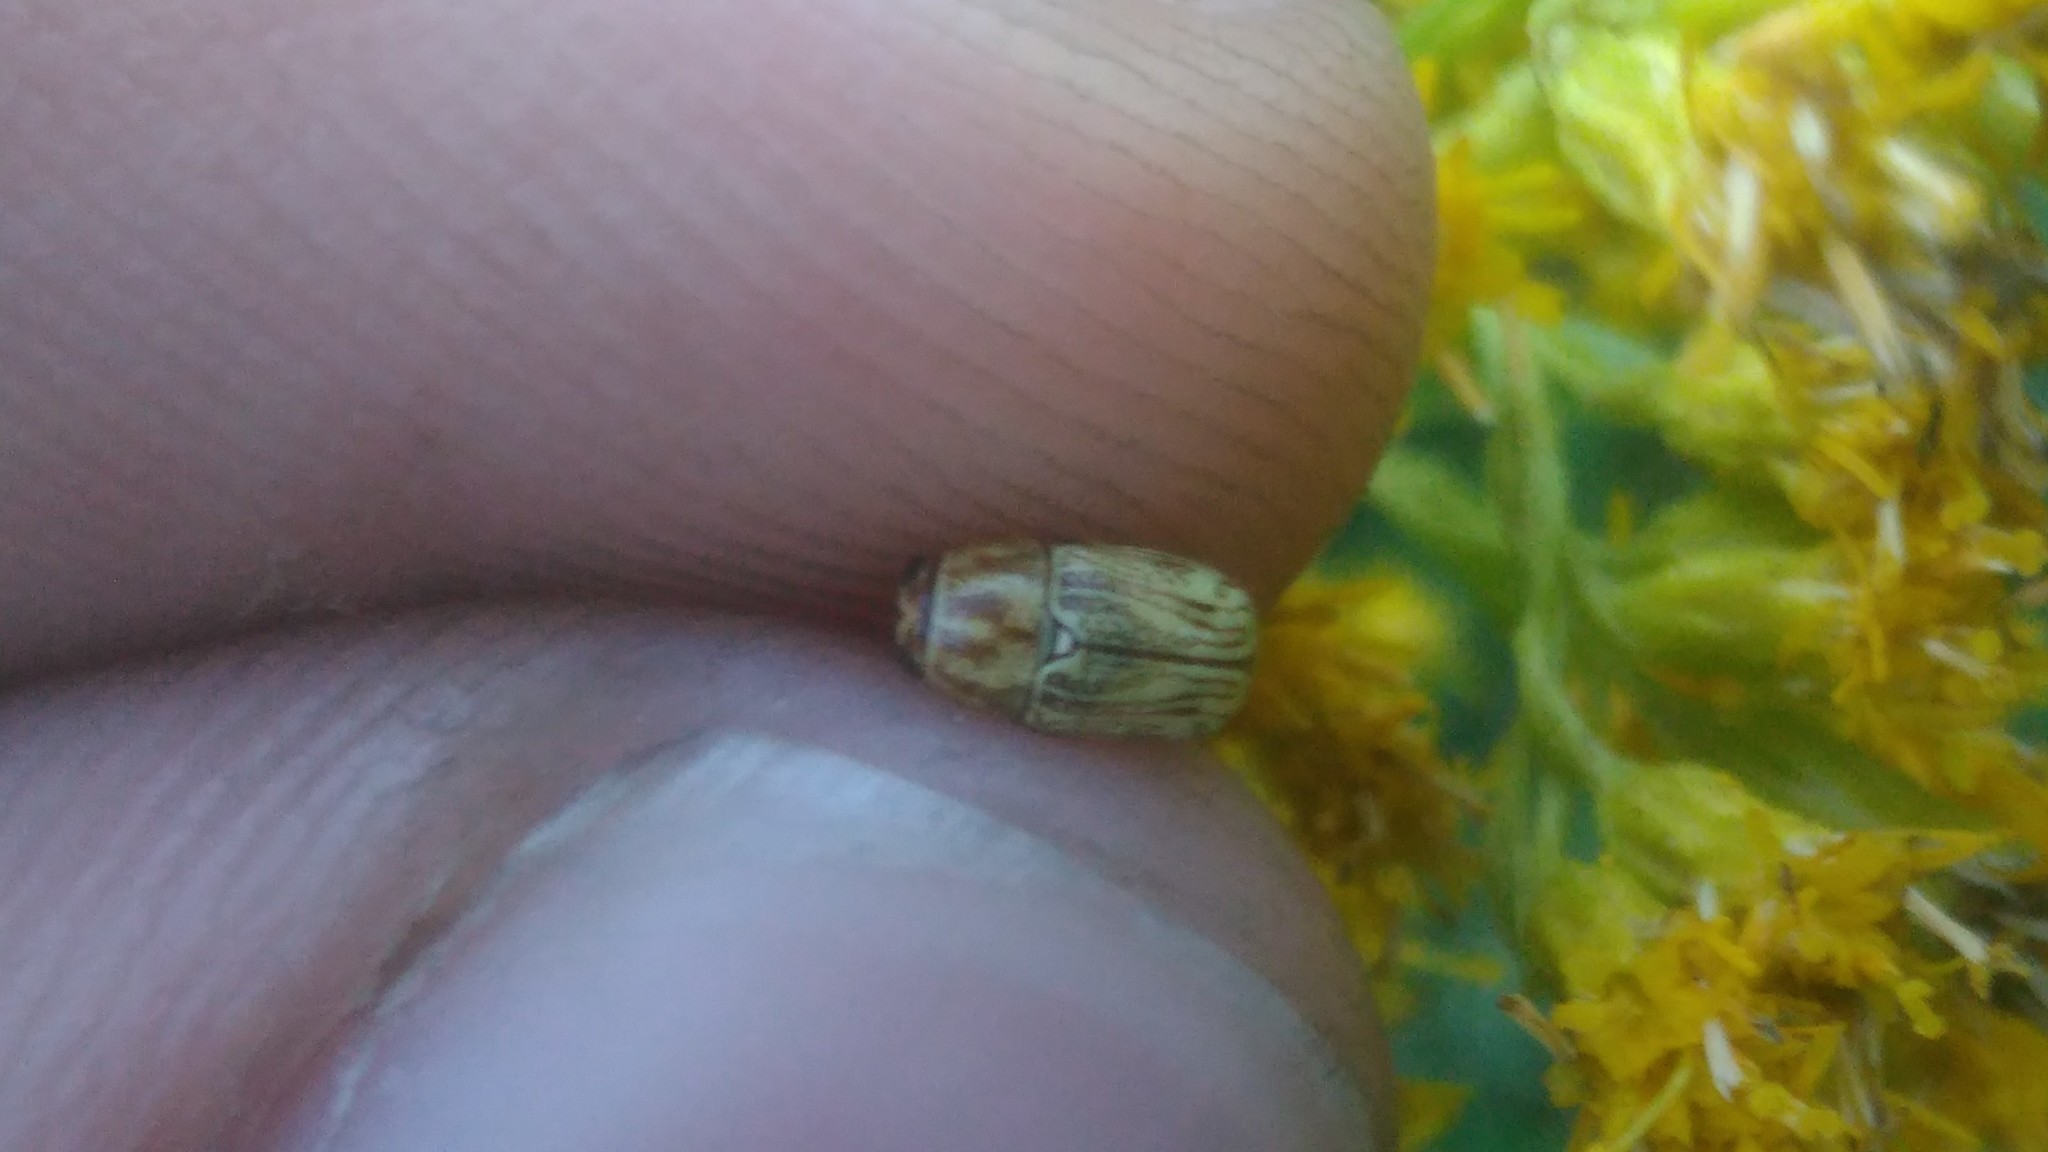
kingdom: Animalia
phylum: Arthropoda
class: Insecta
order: Coleoptera
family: Chrysomelidae
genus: Pachybrachis
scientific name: Pachybrachis
